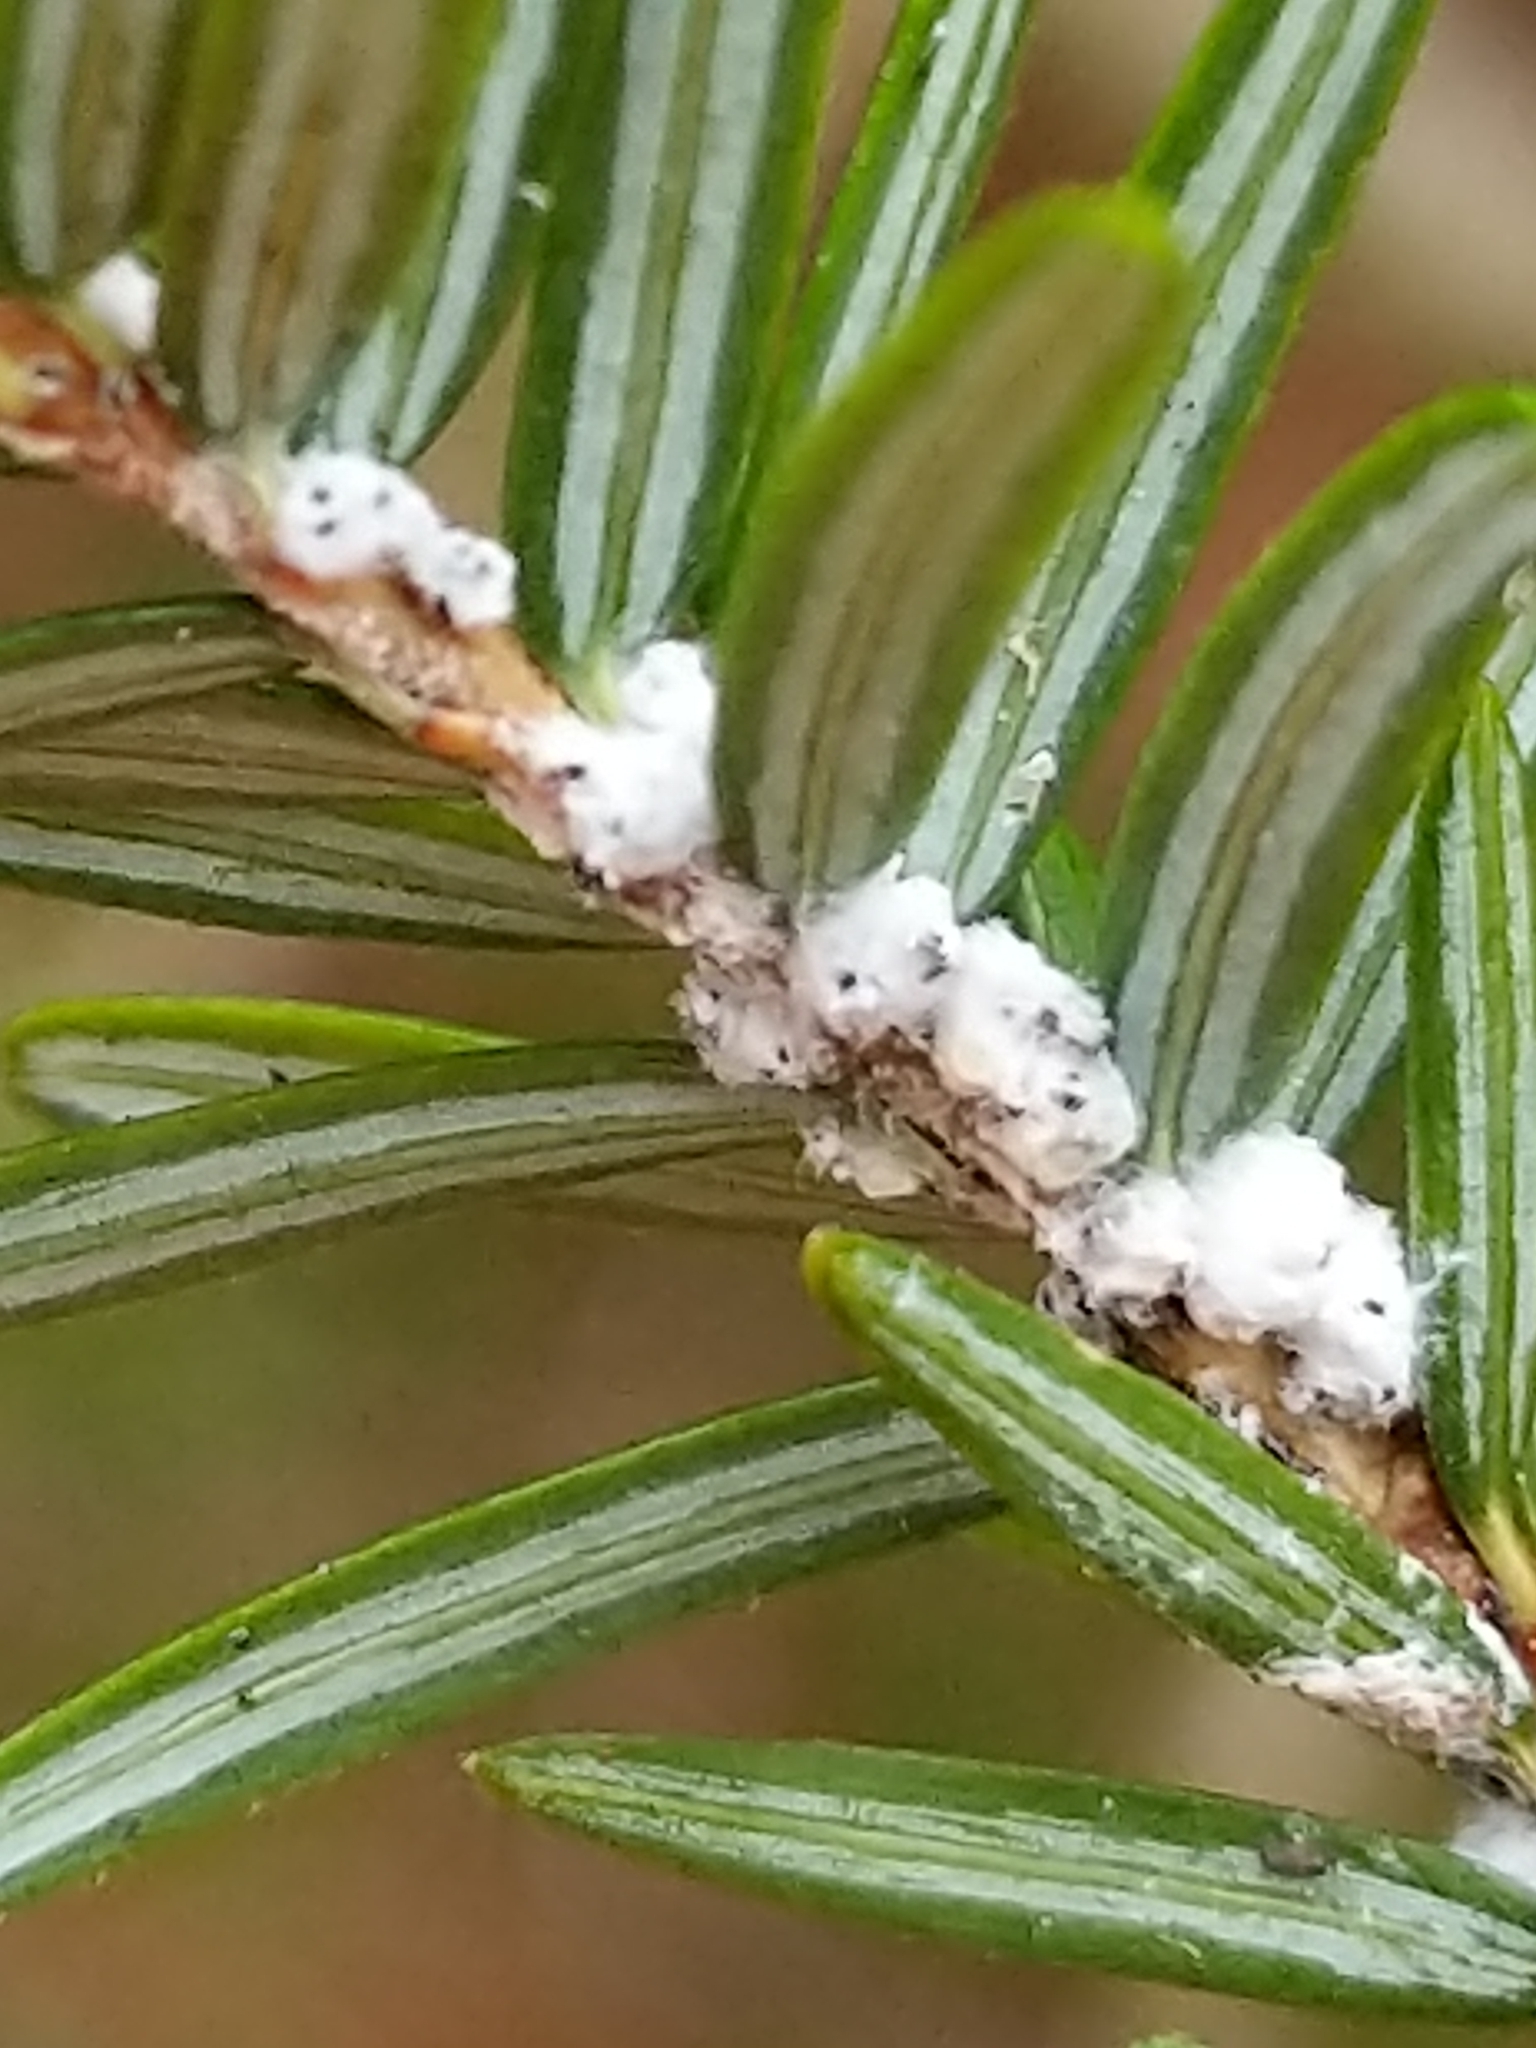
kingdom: Animalia
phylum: Arthropoda
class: Insecta
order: Hemiptera
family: Adelgidae
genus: Adelges
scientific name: Adelges tsugae
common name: Hemlock woolly adelgid
